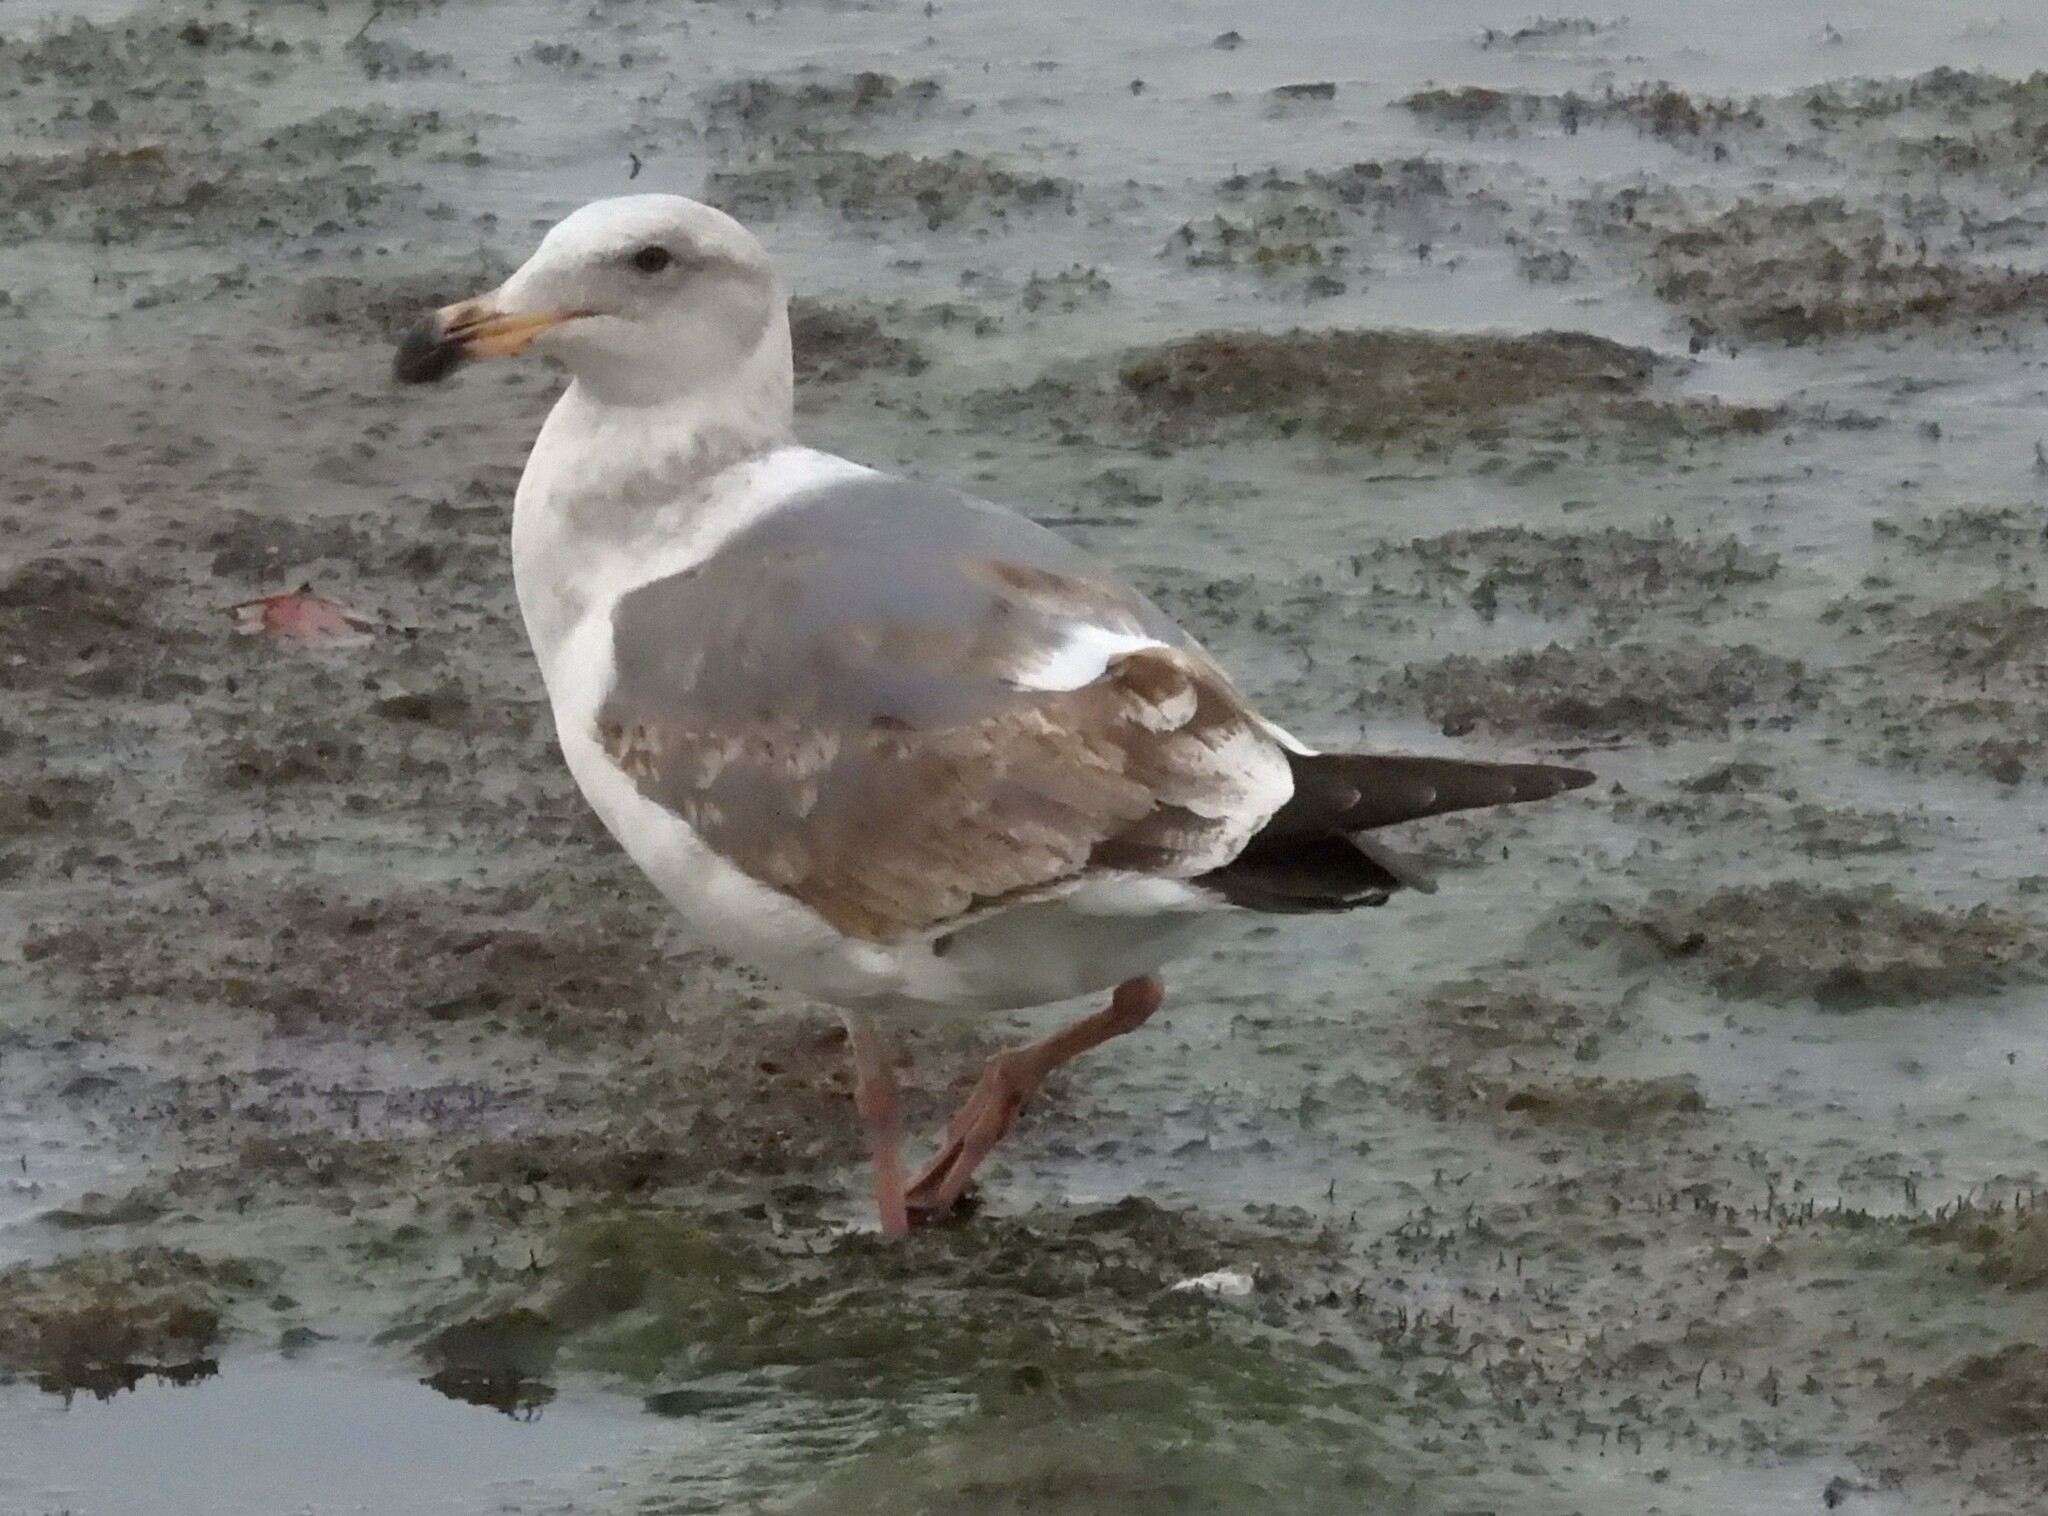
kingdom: Animalia
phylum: Chordata
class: Aves
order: Charadriiformes
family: Laridae
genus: Larus
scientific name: Larus occidentalis
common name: Western gull
